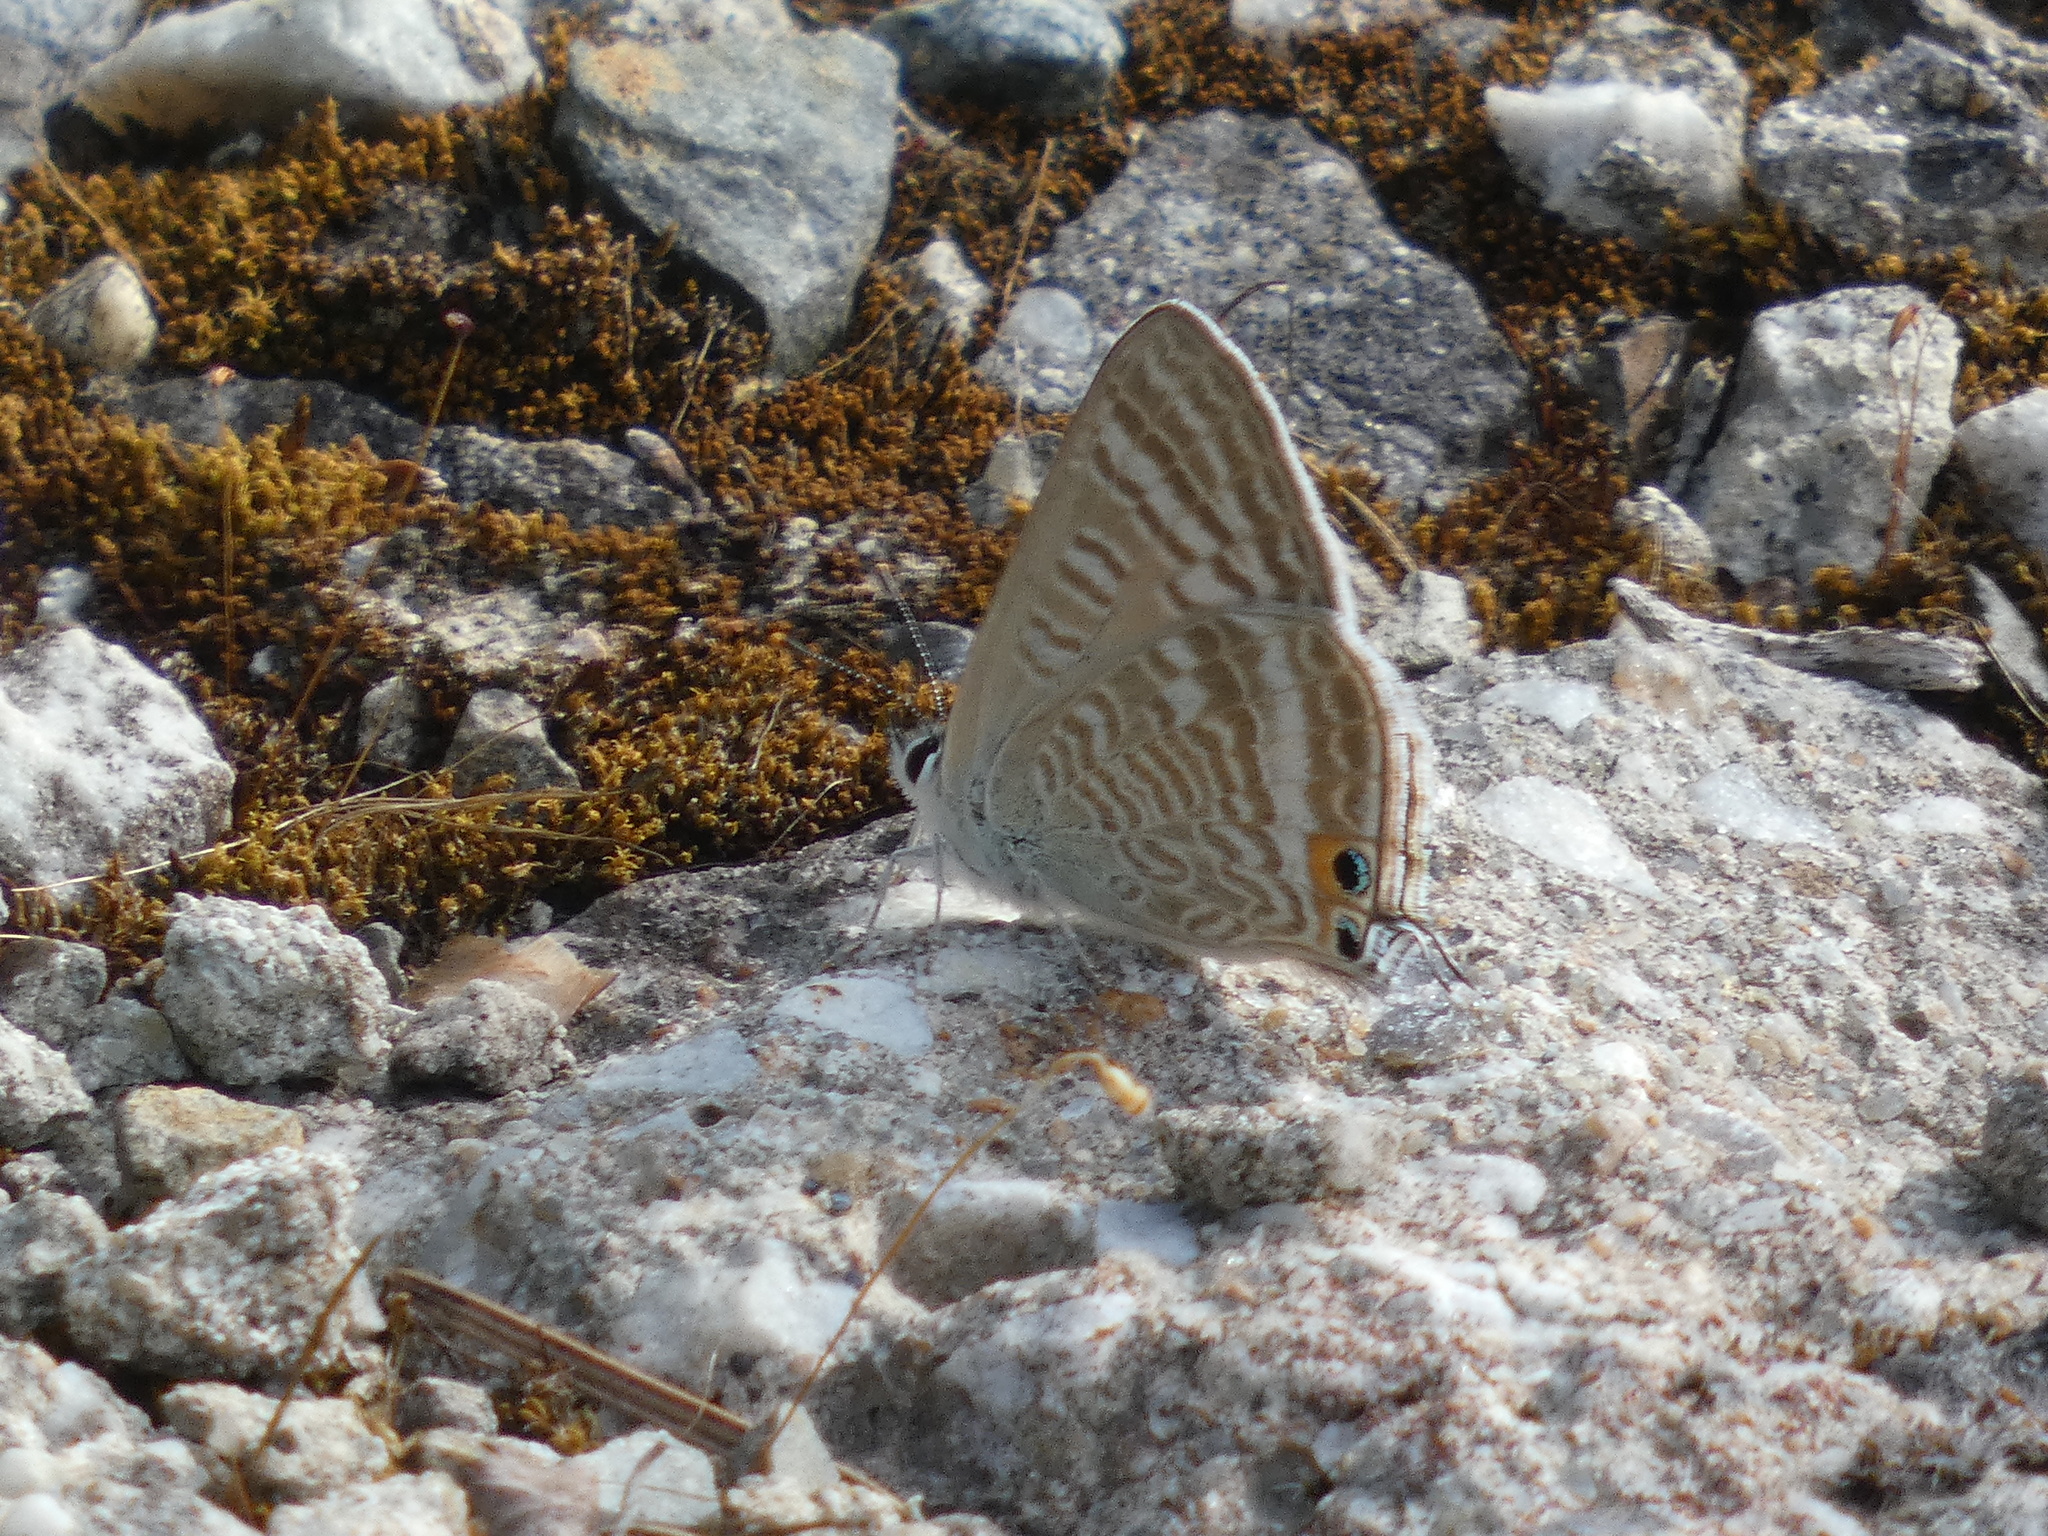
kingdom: Animalia
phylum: Arthropoda
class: Insecta
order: Lepidoptera
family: Lycaenidae
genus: Lampides
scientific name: Lampides boeticus
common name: Long-tailed blue
